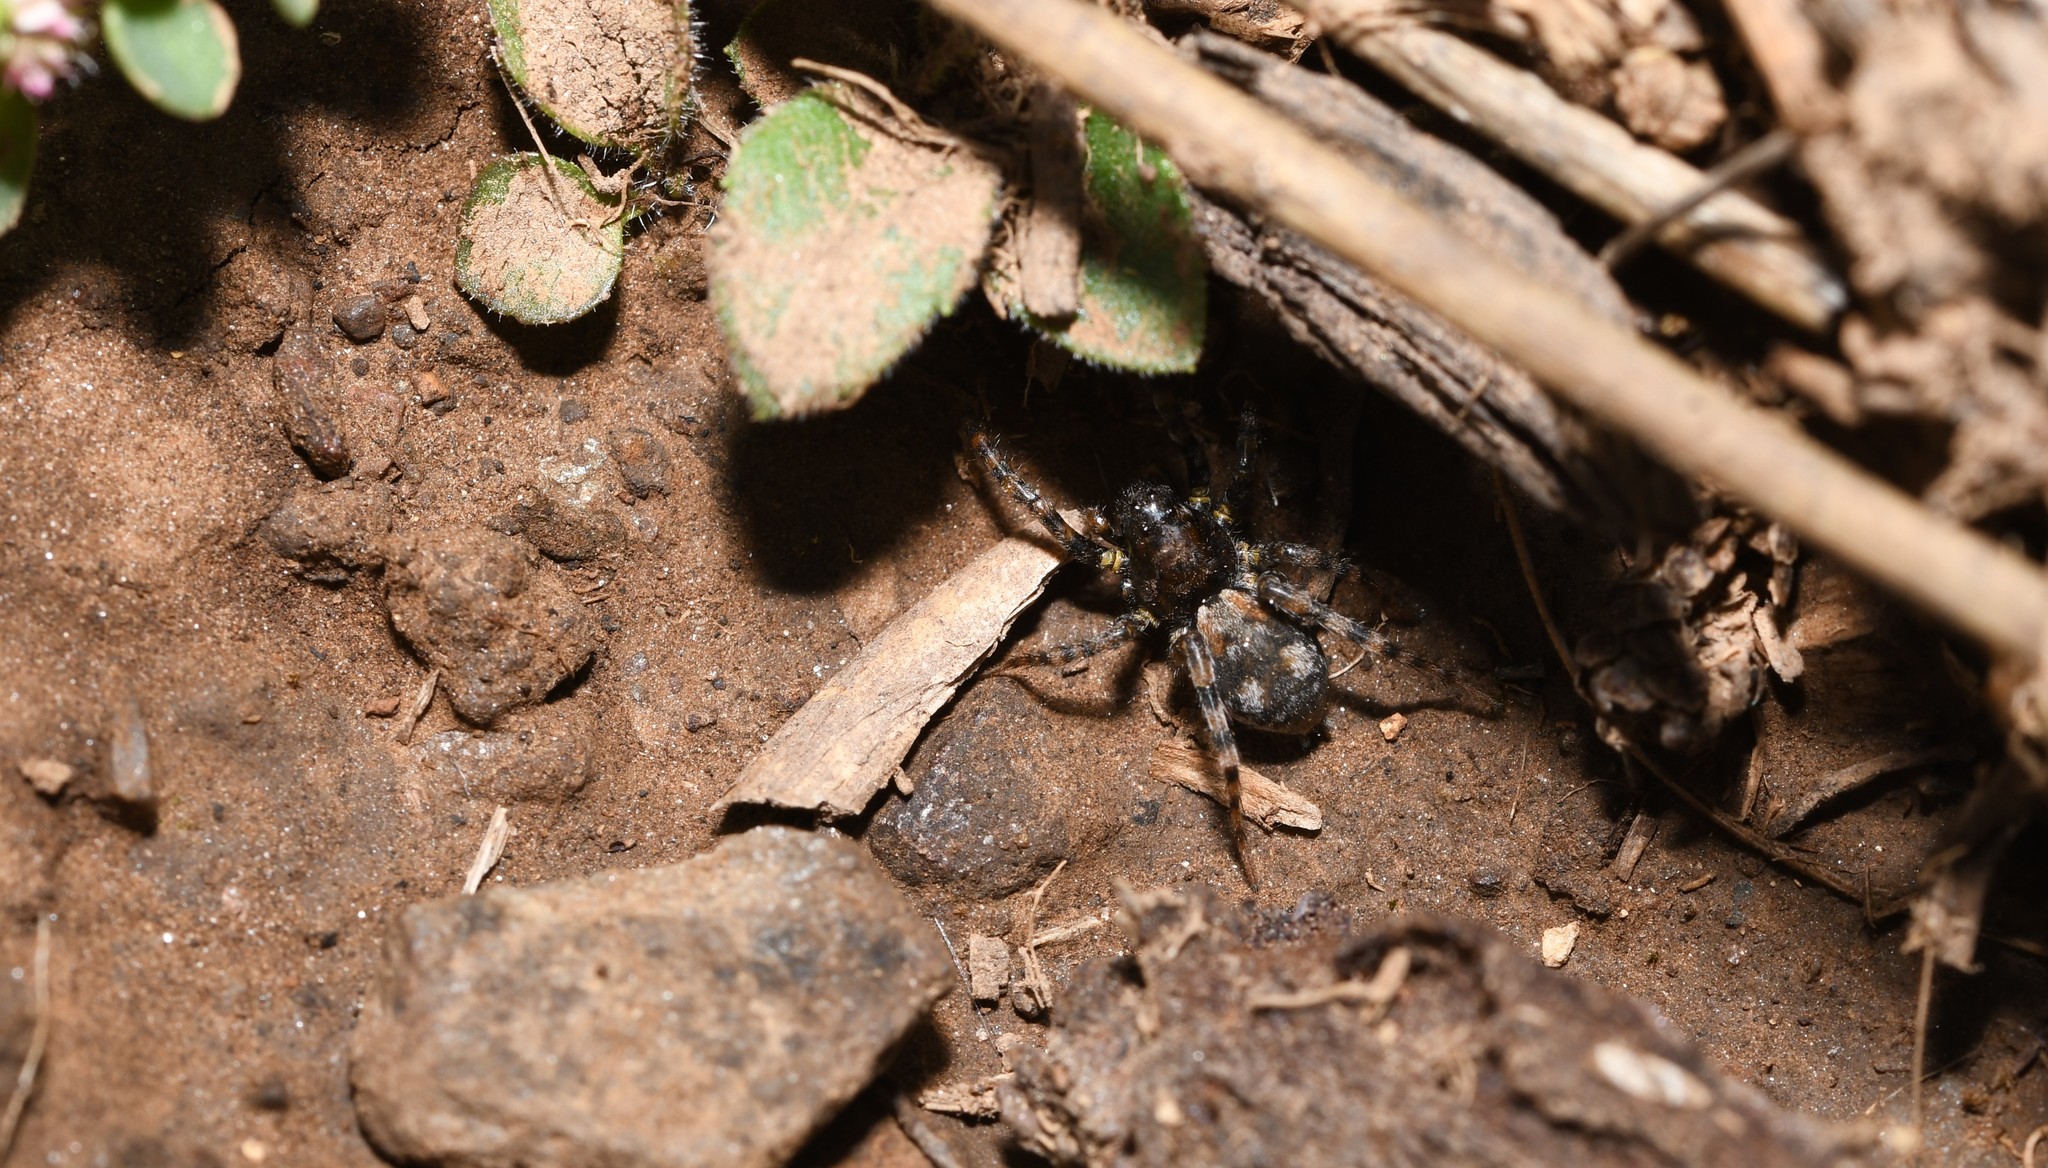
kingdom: Animalia
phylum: Arthropoda
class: Arachnida
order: Araneae
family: Lycosidae
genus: Arctosa
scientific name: Arctosa perita
